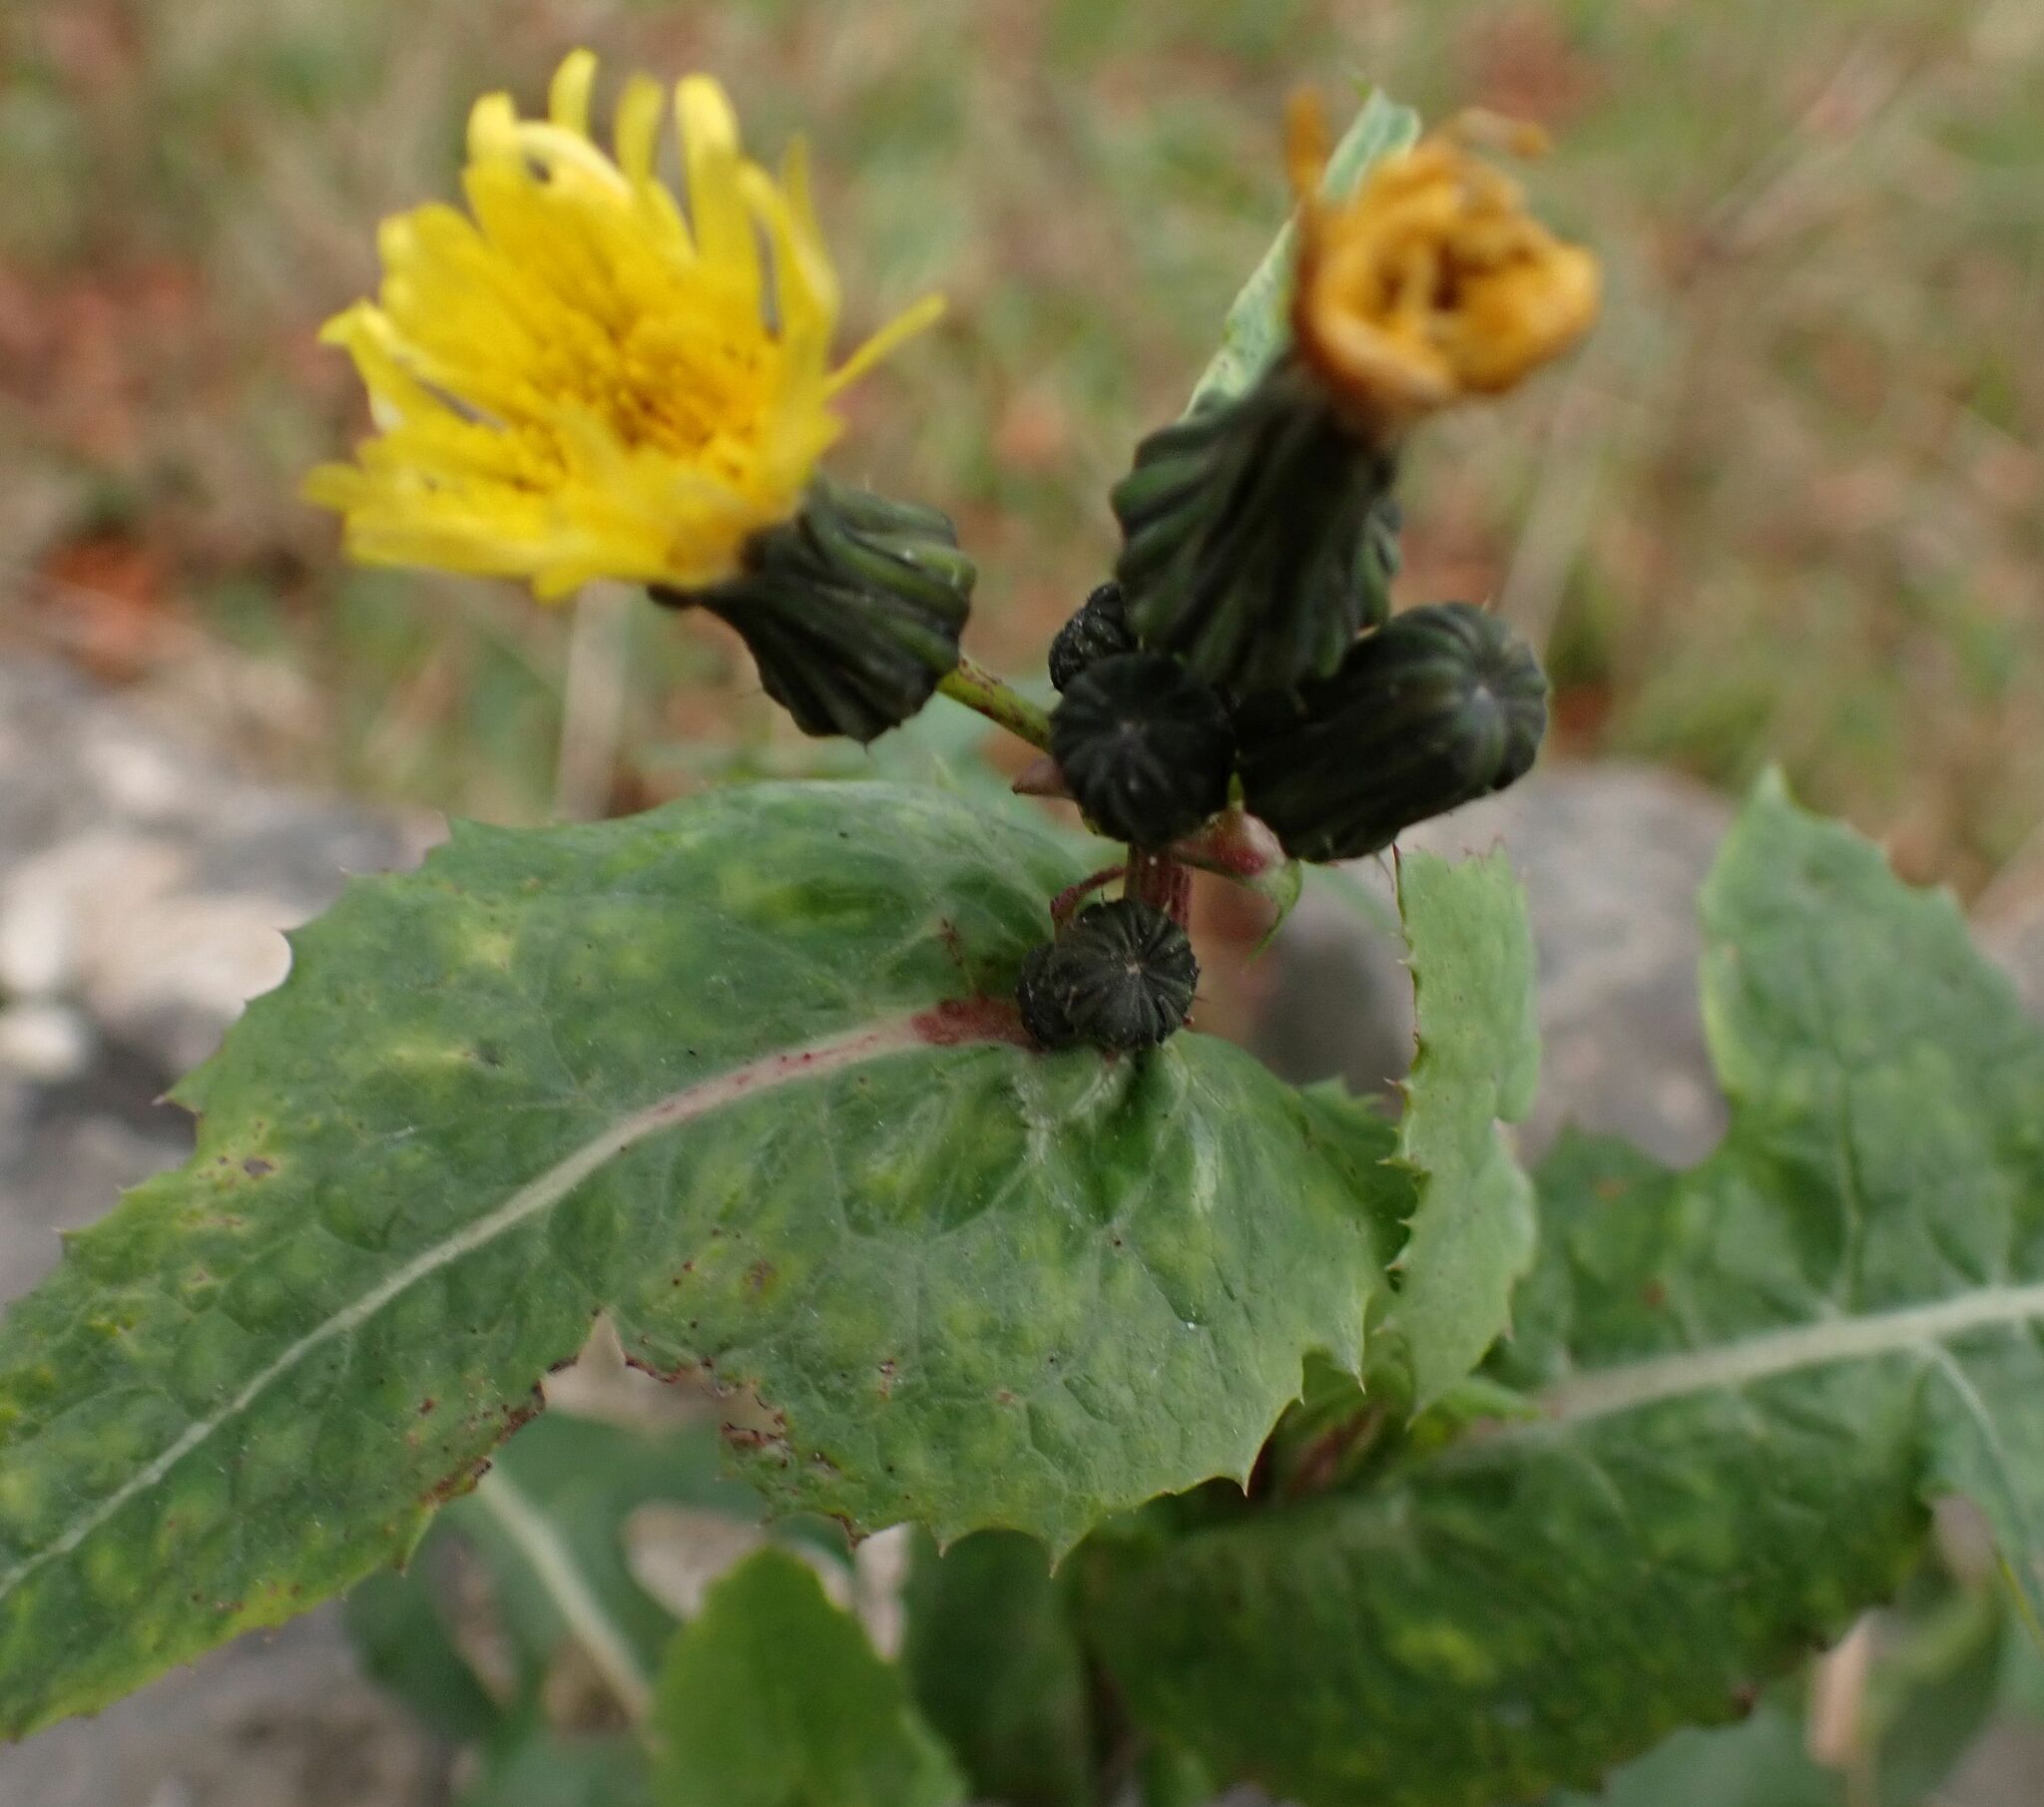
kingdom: Plantae
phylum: Tracheophyta
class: Magnoliopsida
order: Asterales
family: Asteraceae
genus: Sonchus
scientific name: Sonchus oleraceus
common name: Common sowthistle
